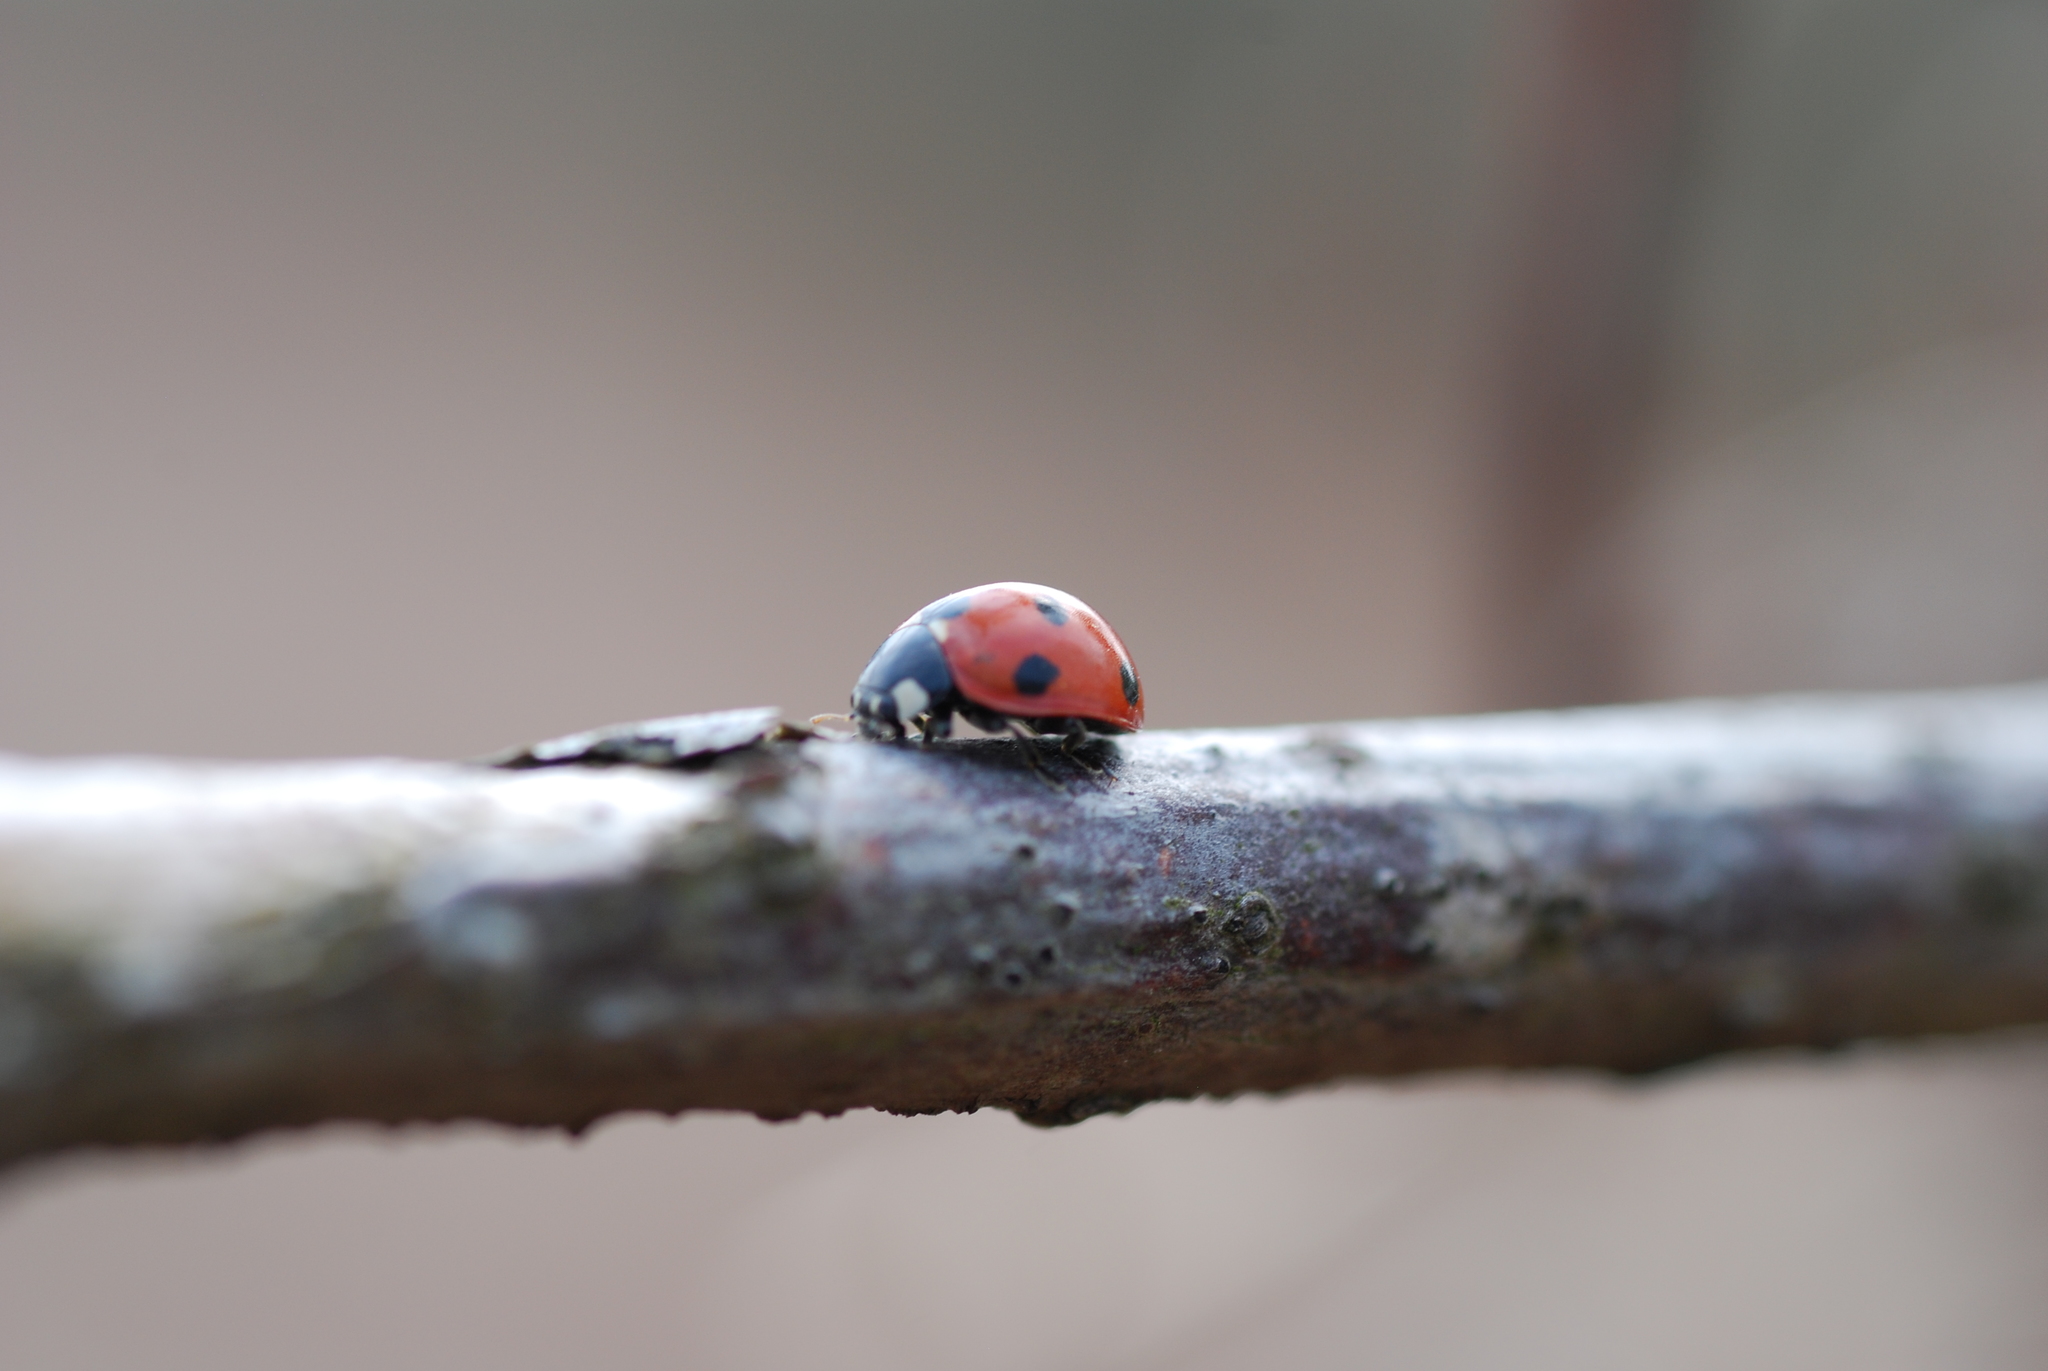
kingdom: Animalia
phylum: Arthropoda
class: Insecta
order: Coleoptera
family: Coccinellidae
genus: Coccinella
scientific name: Coccinella septempunctata
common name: Sevenspotted lady beetle
